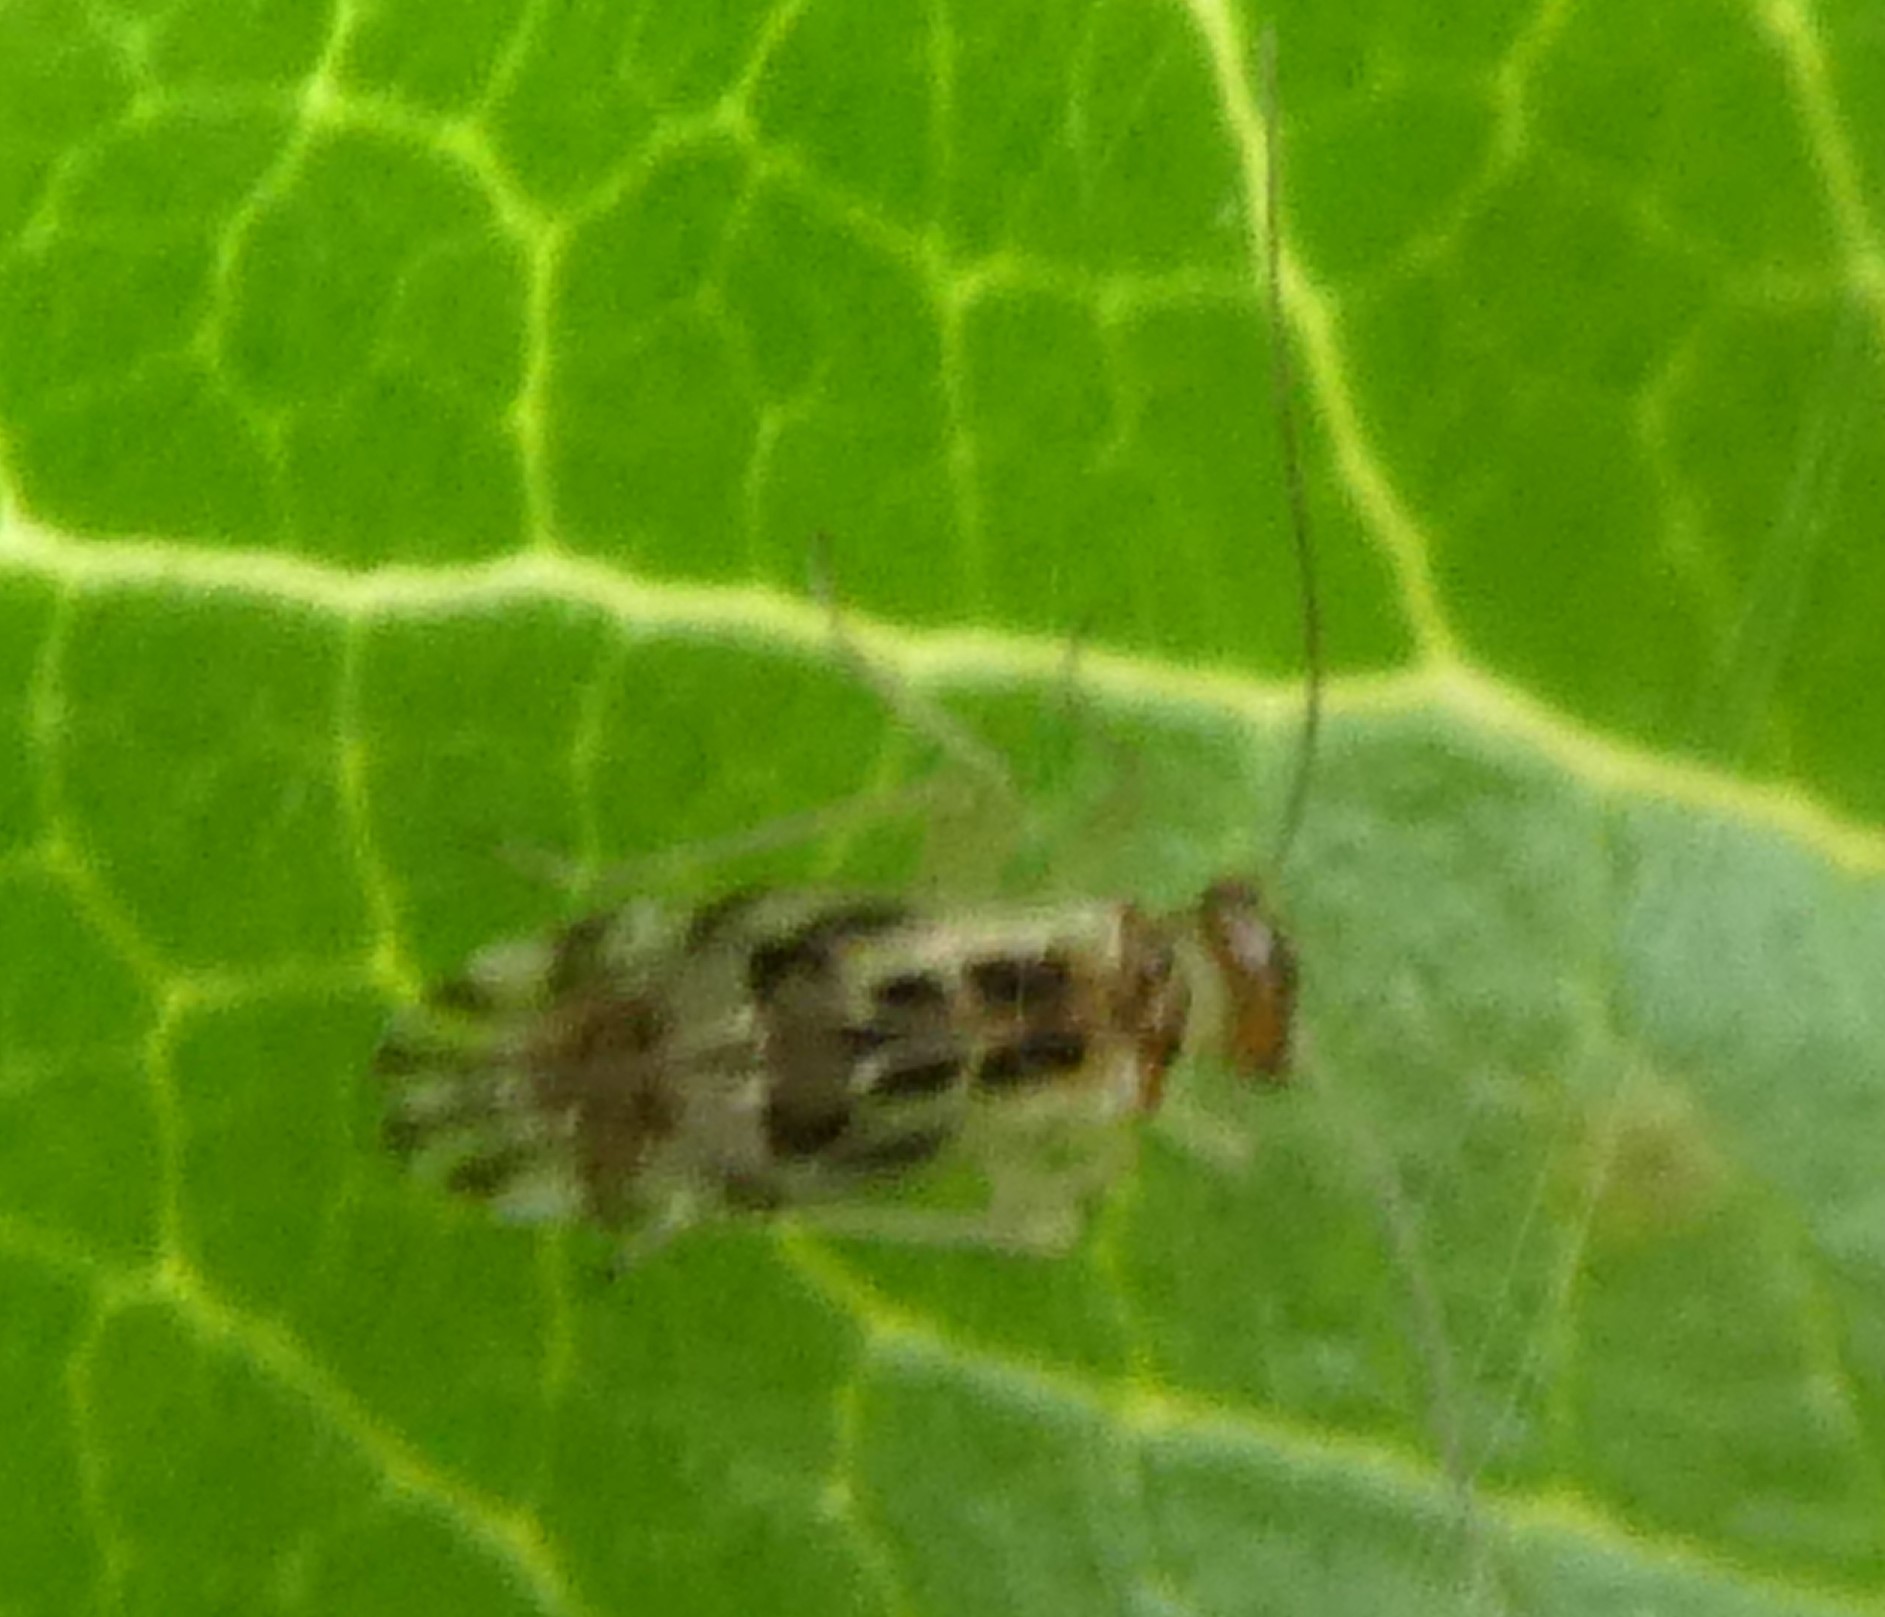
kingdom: Animalia
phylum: Arthropoda
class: Insecta
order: Psocodea
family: Stenopsocidae
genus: Graphopsocus
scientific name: Graphopsocus cruciatus
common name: Lizard bark louse
